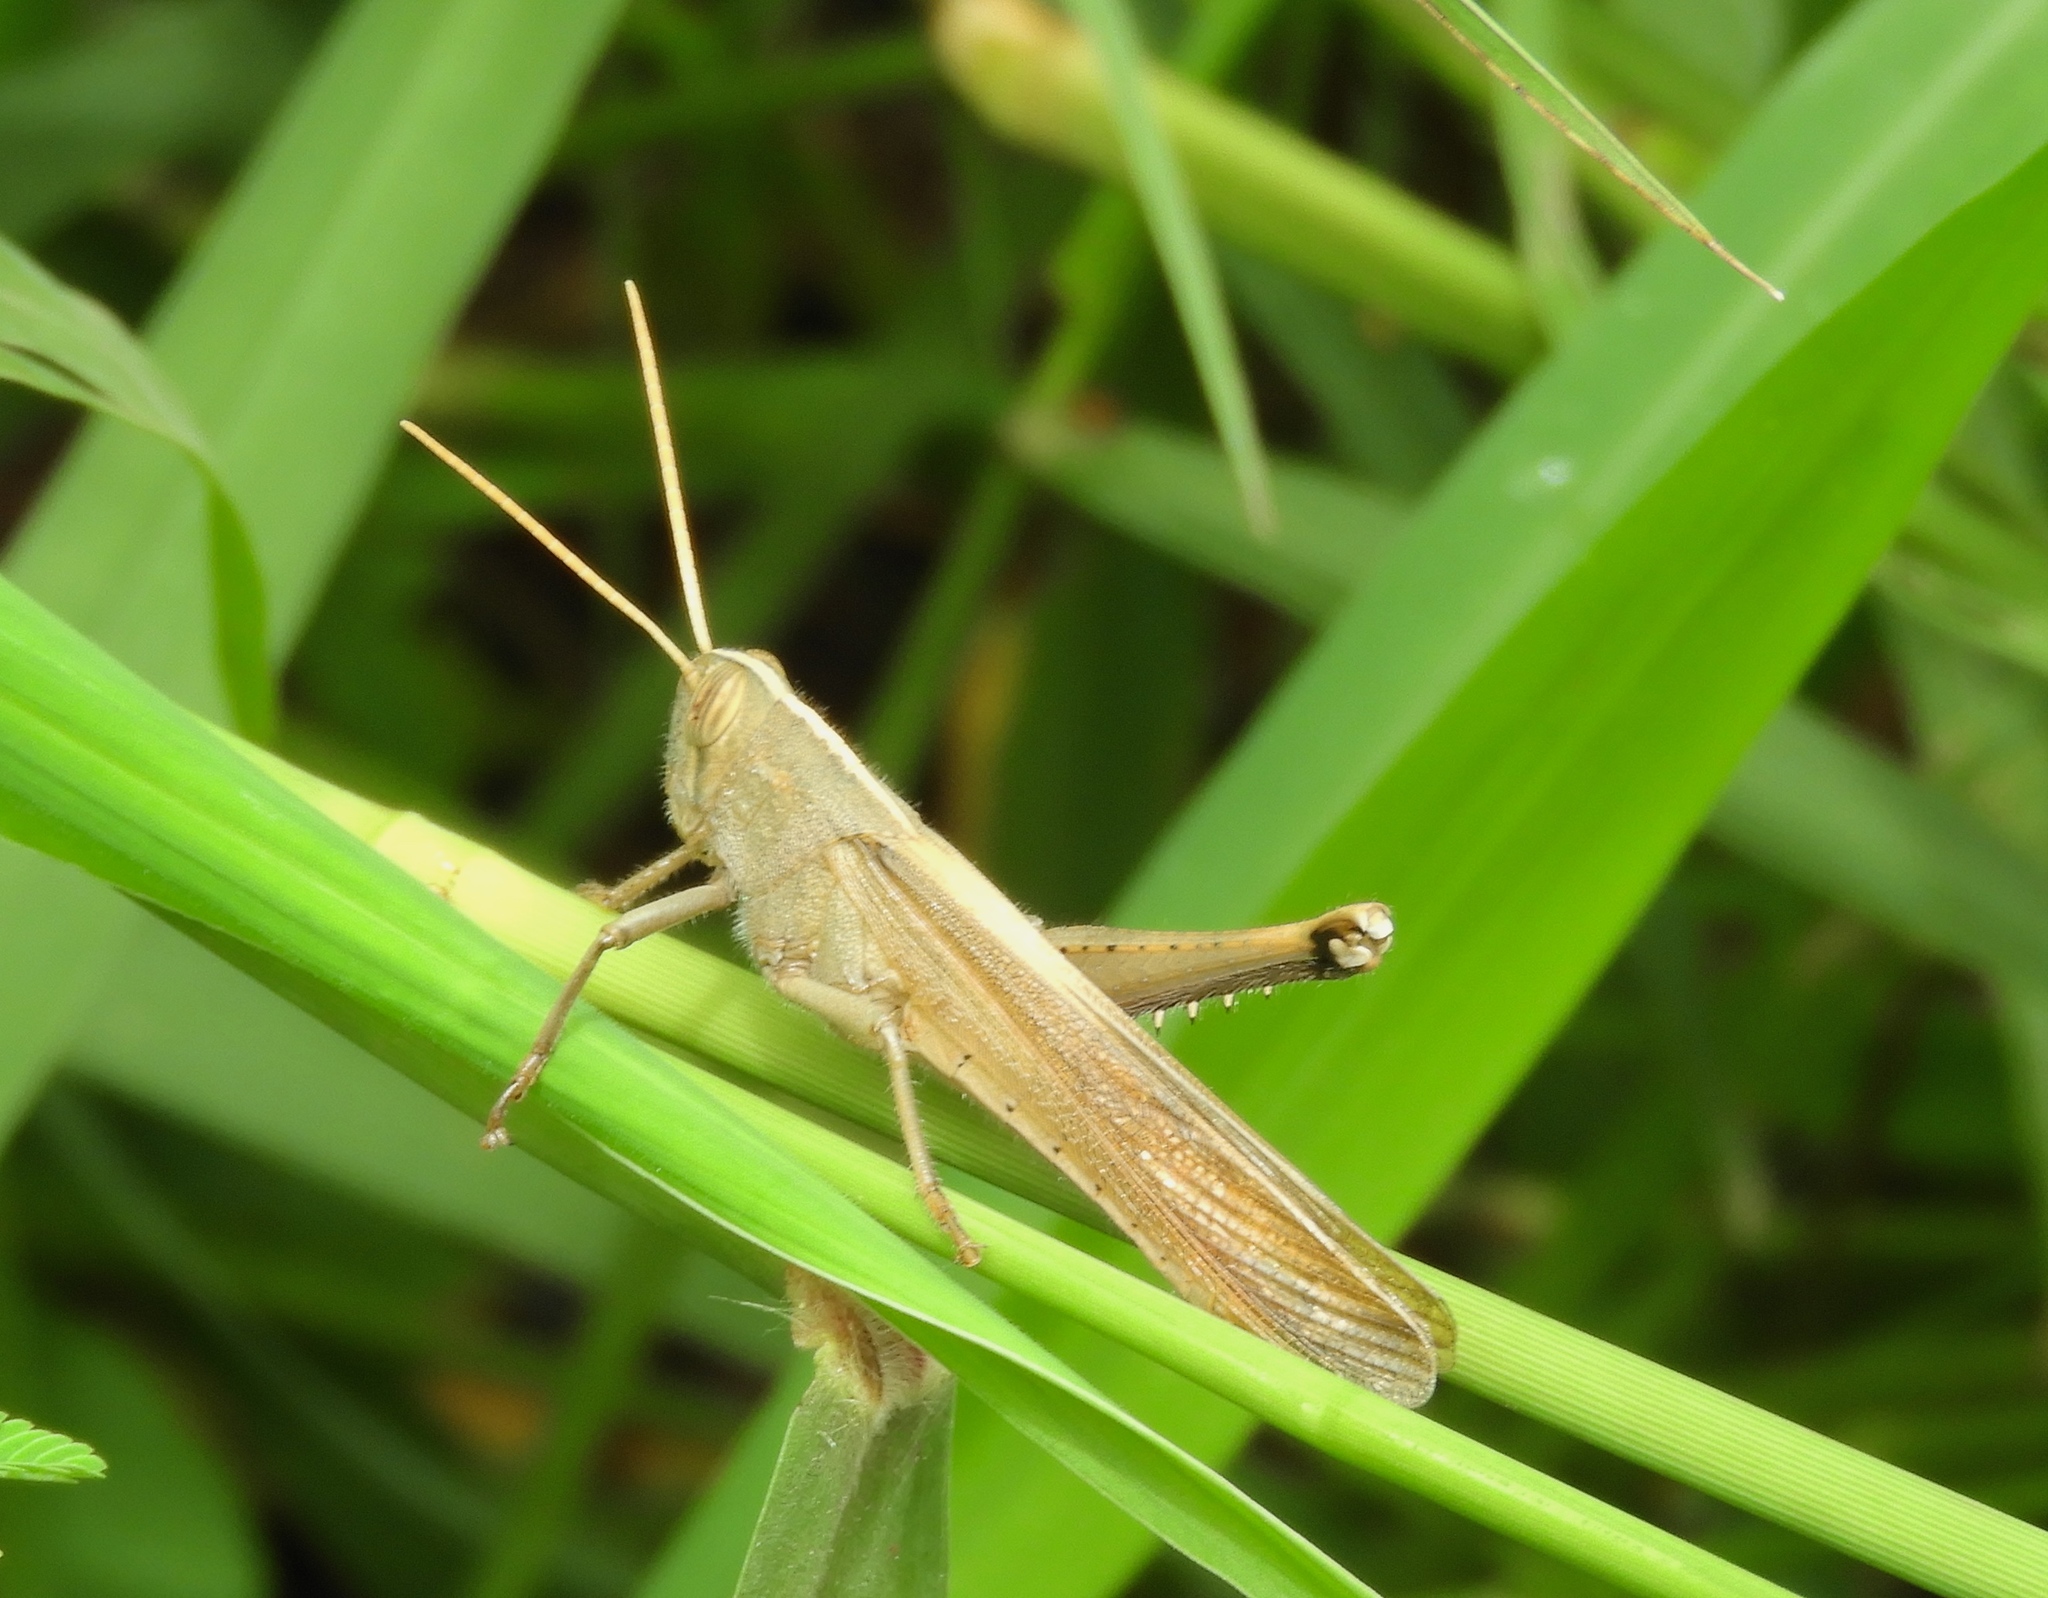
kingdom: Animalia
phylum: Arthropoda
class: Insecta
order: Orthoptera
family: Acrididae
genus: Schistocerca
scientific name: Schistocerca camerata
